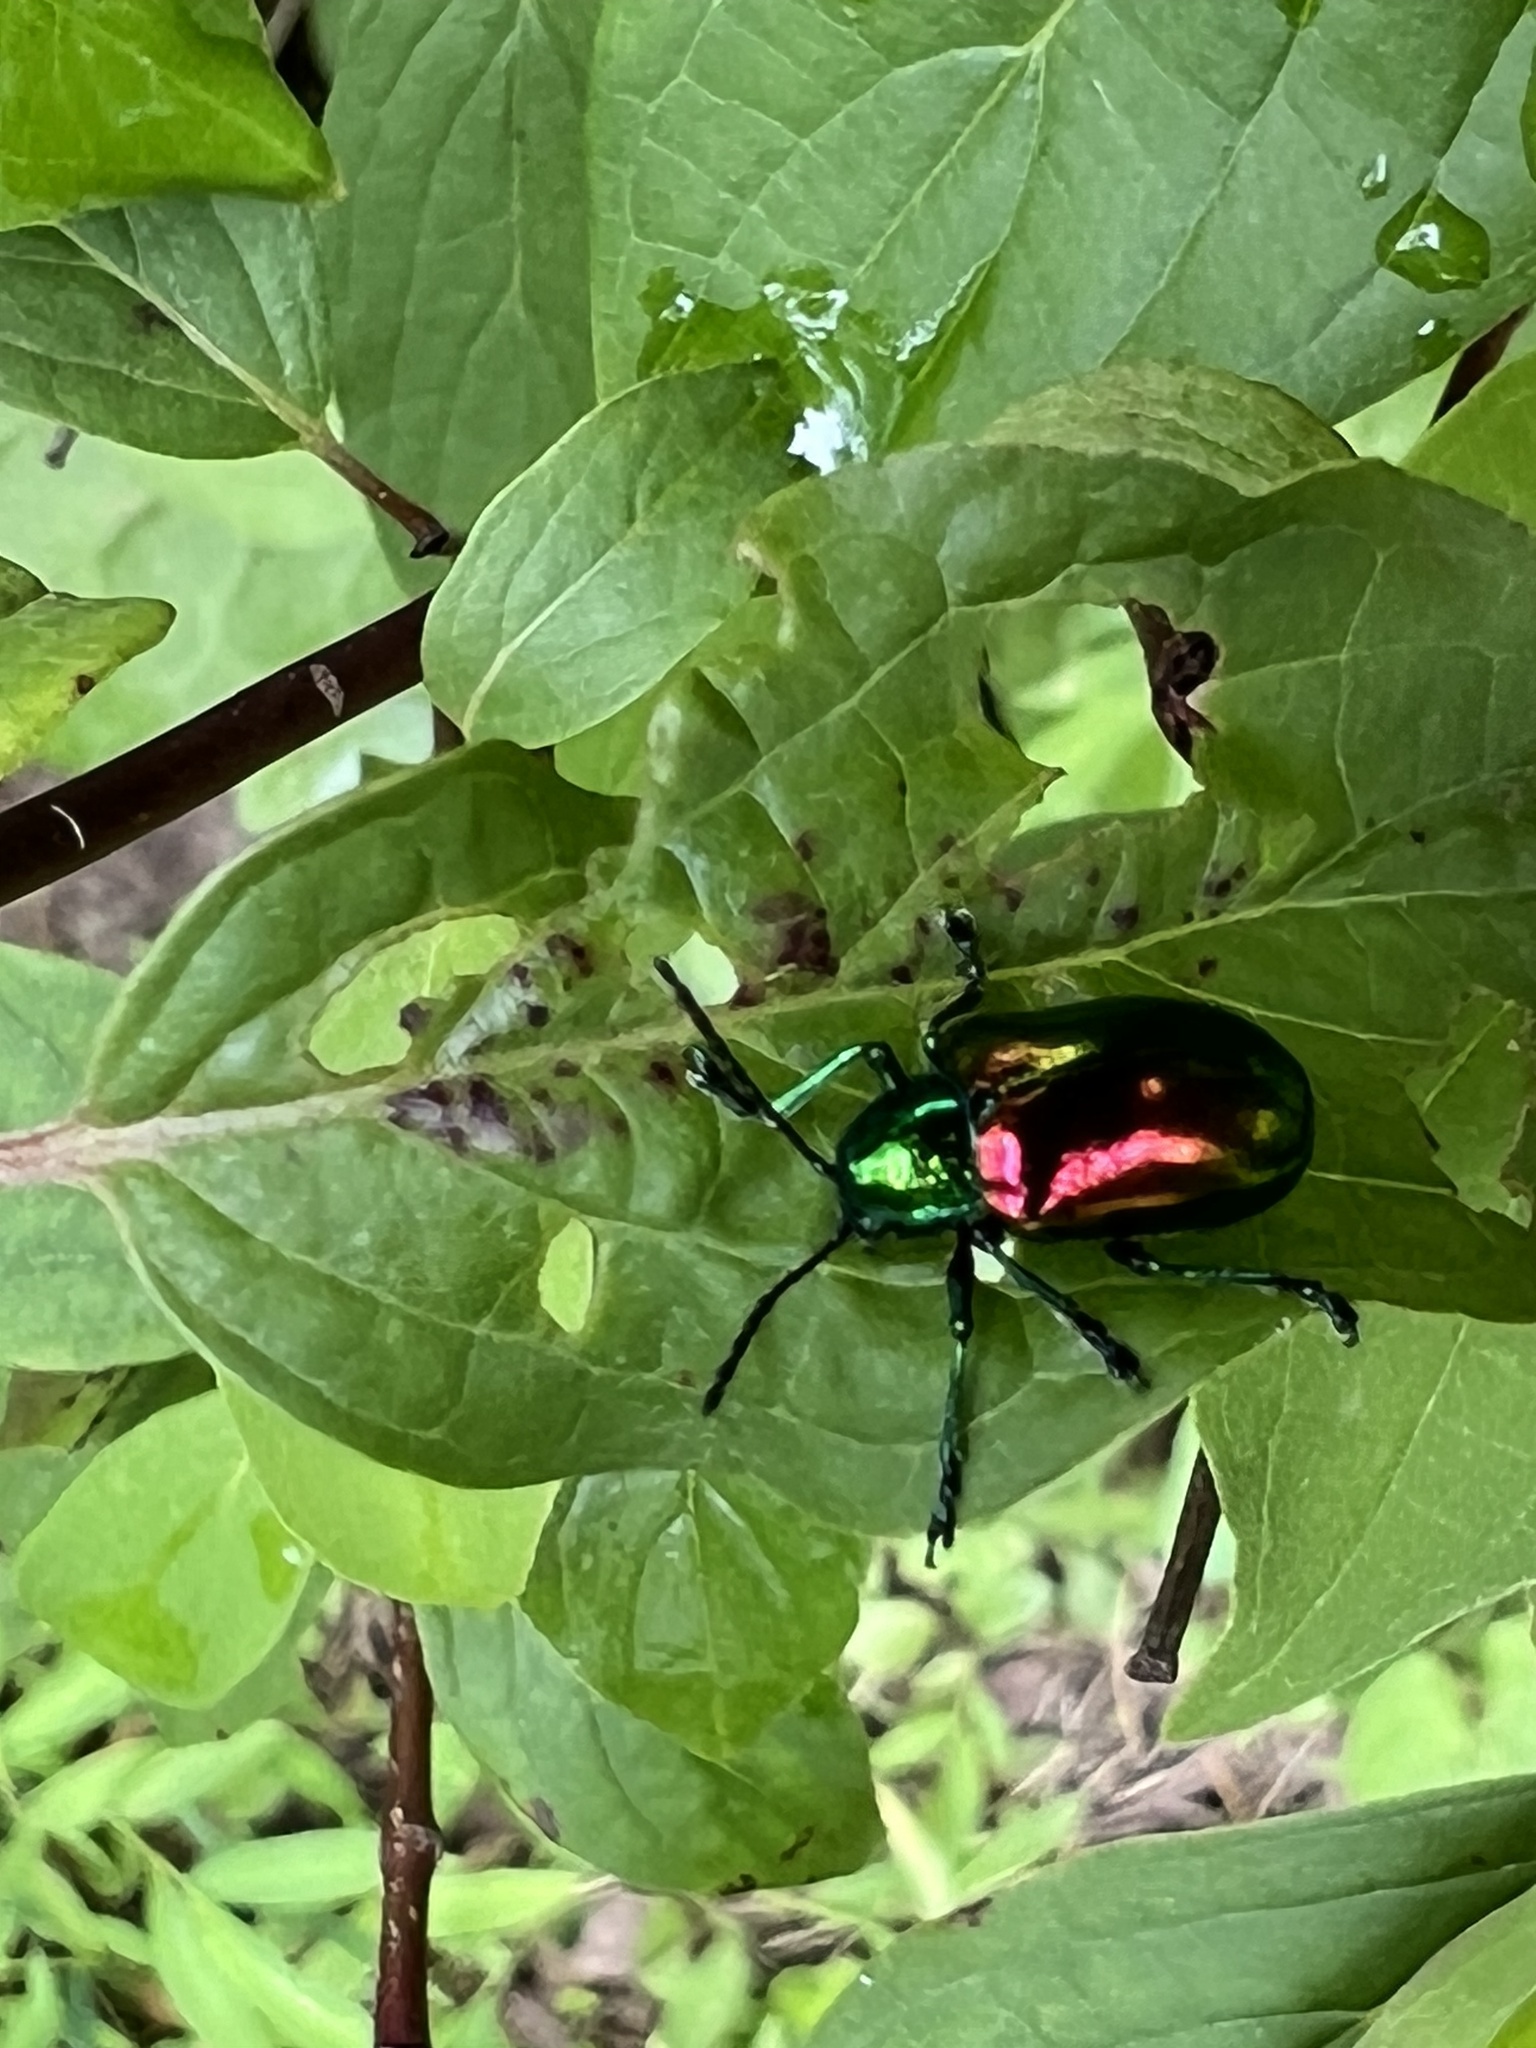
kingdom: Animalia
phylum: Arthropoda
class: Insecta
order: Coleoptera
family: Chrysomelidae
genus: Chrysochus
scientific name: Chrysochus auratus
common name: Dogbane leaf beetle
